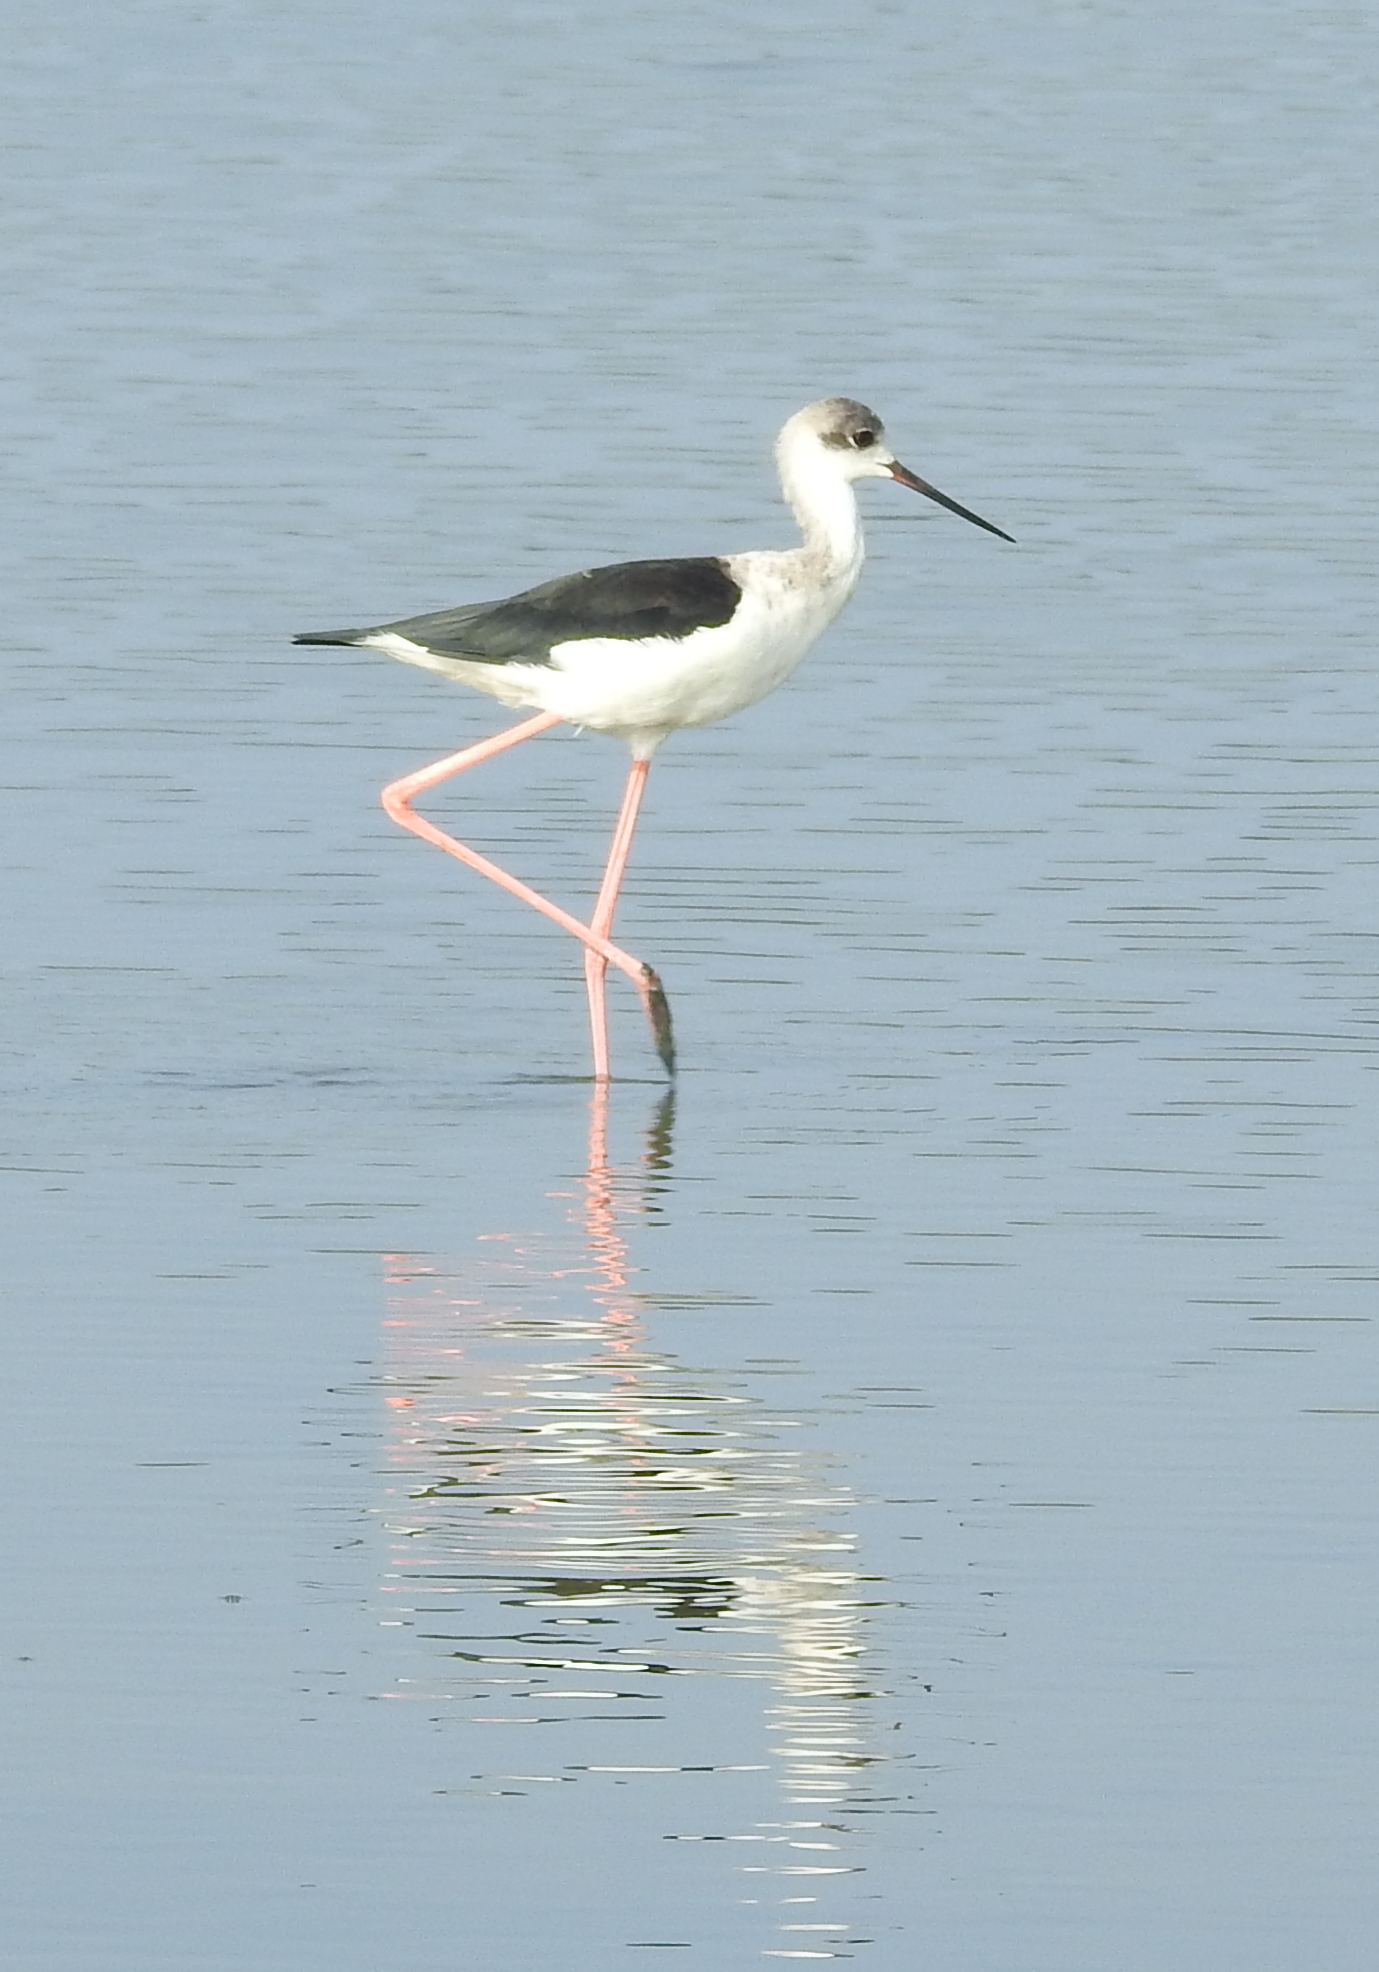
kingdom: Animalia
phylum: Chordata
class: Aves
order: Charadriiformes
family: Recurvirostridae
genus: Himantopus
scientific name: Himantopus himantopus
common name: Black-winged stilt
